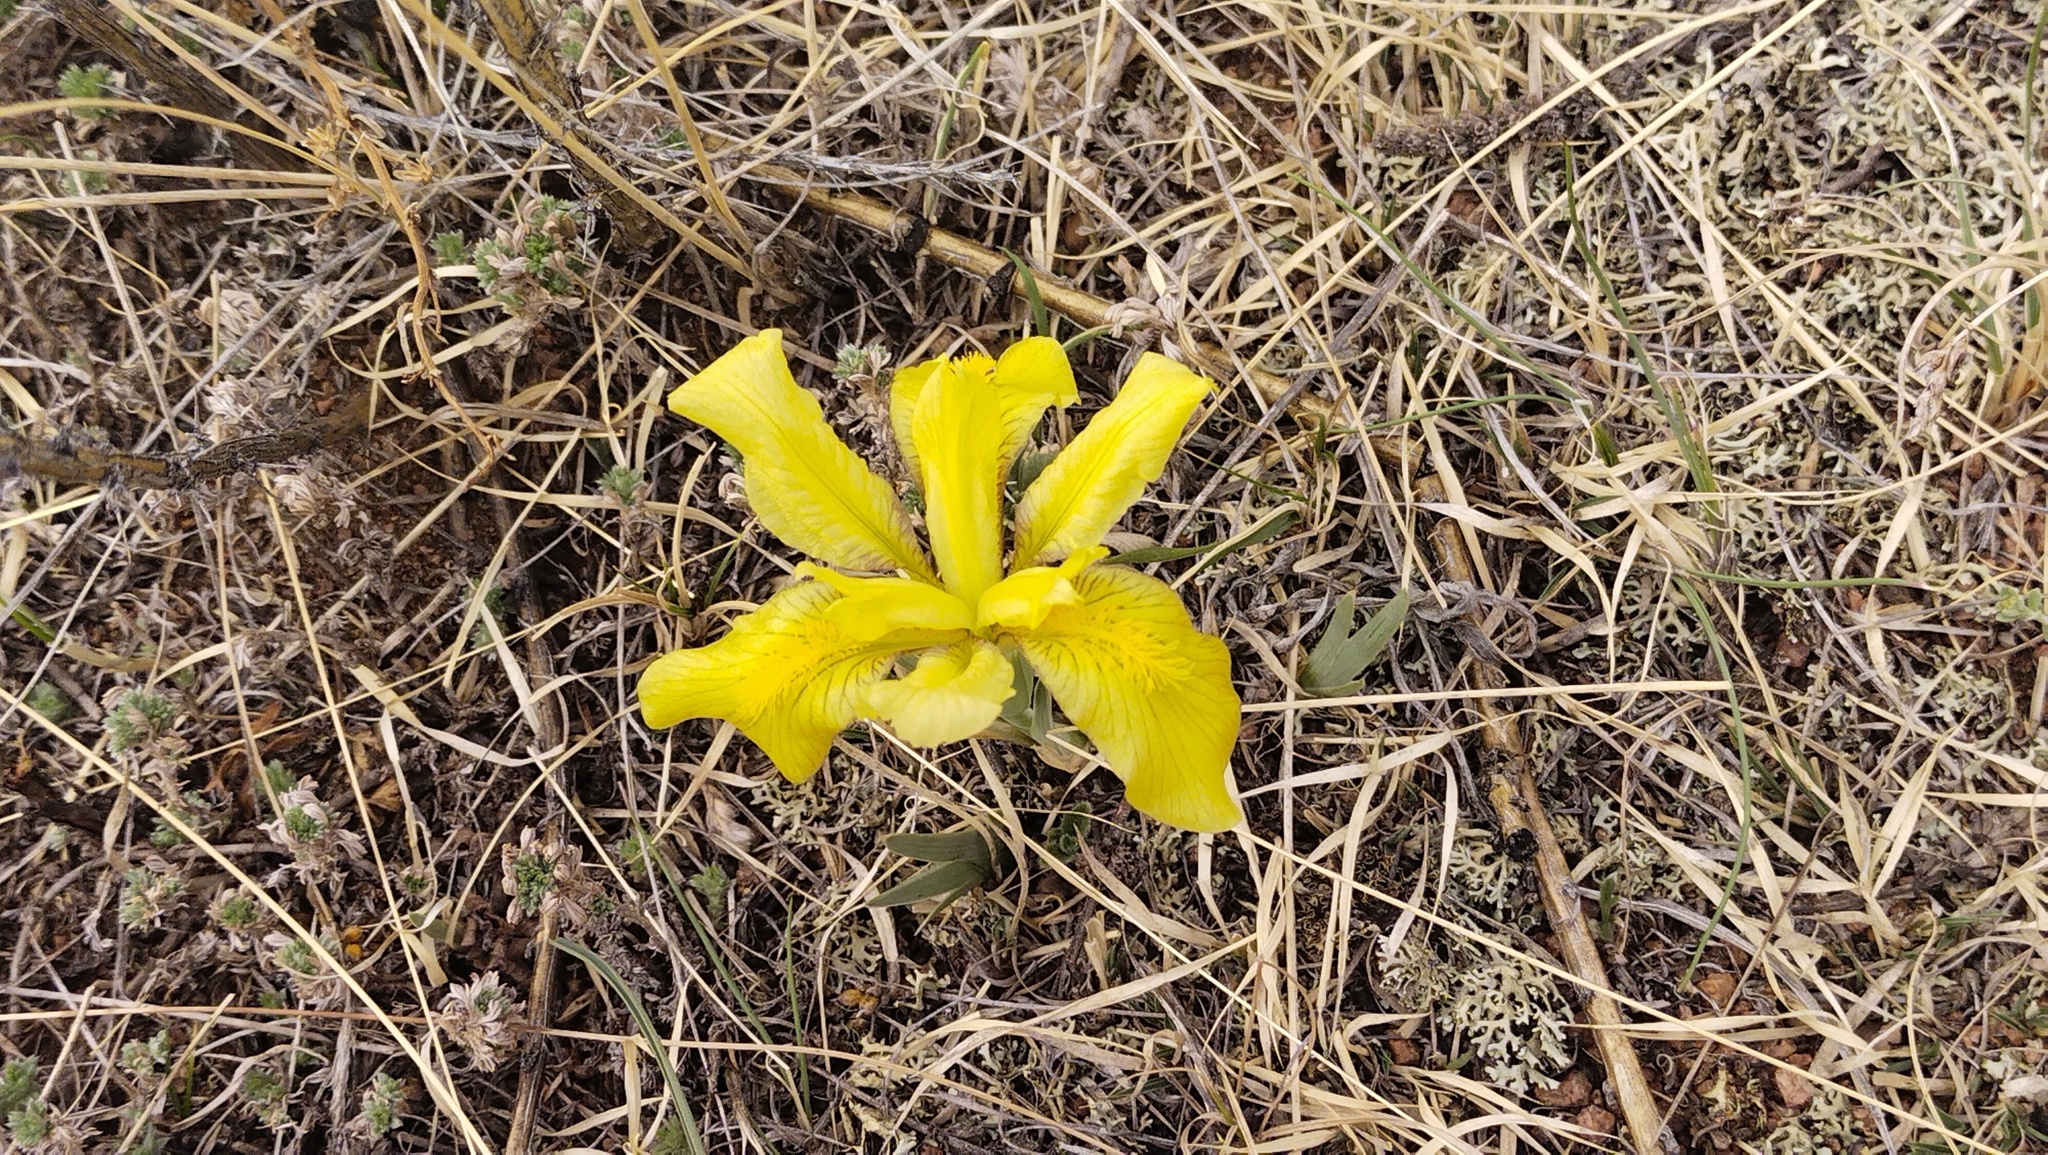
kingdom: Plantae
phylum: Tracheophyta
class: Liliopsida
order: Asparagales
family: Iridaceae
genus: Iris
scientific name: Iris humilis
